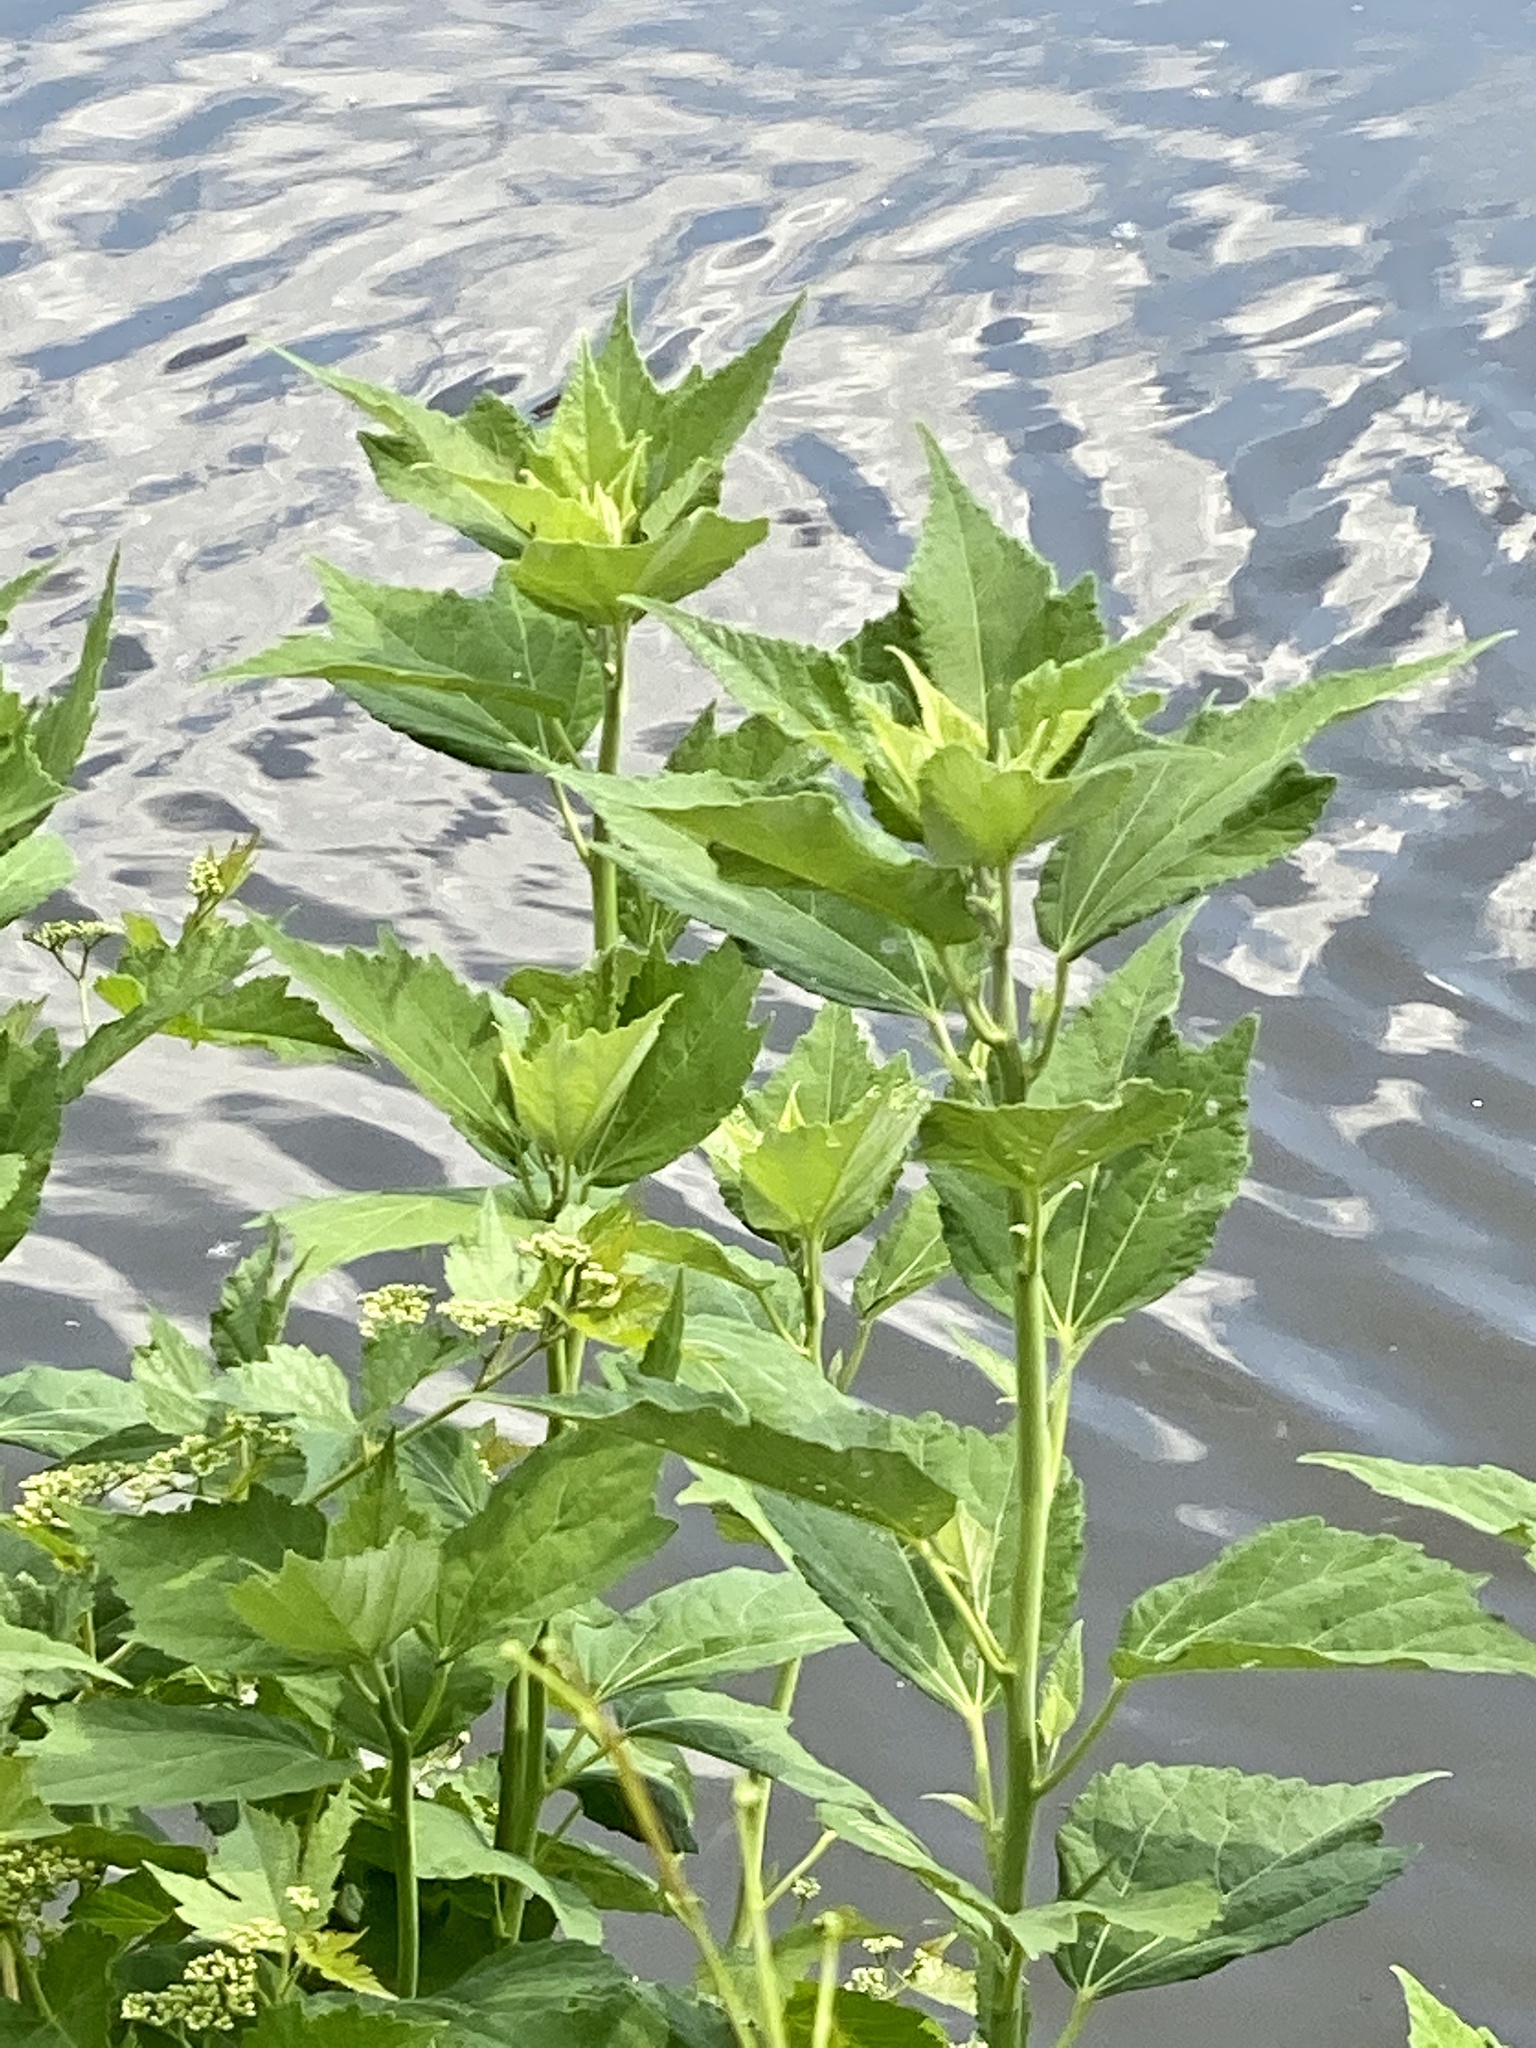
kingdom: Plantae
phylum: Tracheophyta
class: Magnoliopsida
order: Malvales
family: Malvaceae
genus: Hibiscus
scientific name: Hibiscus moscheutos
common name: Common rose-mallow
